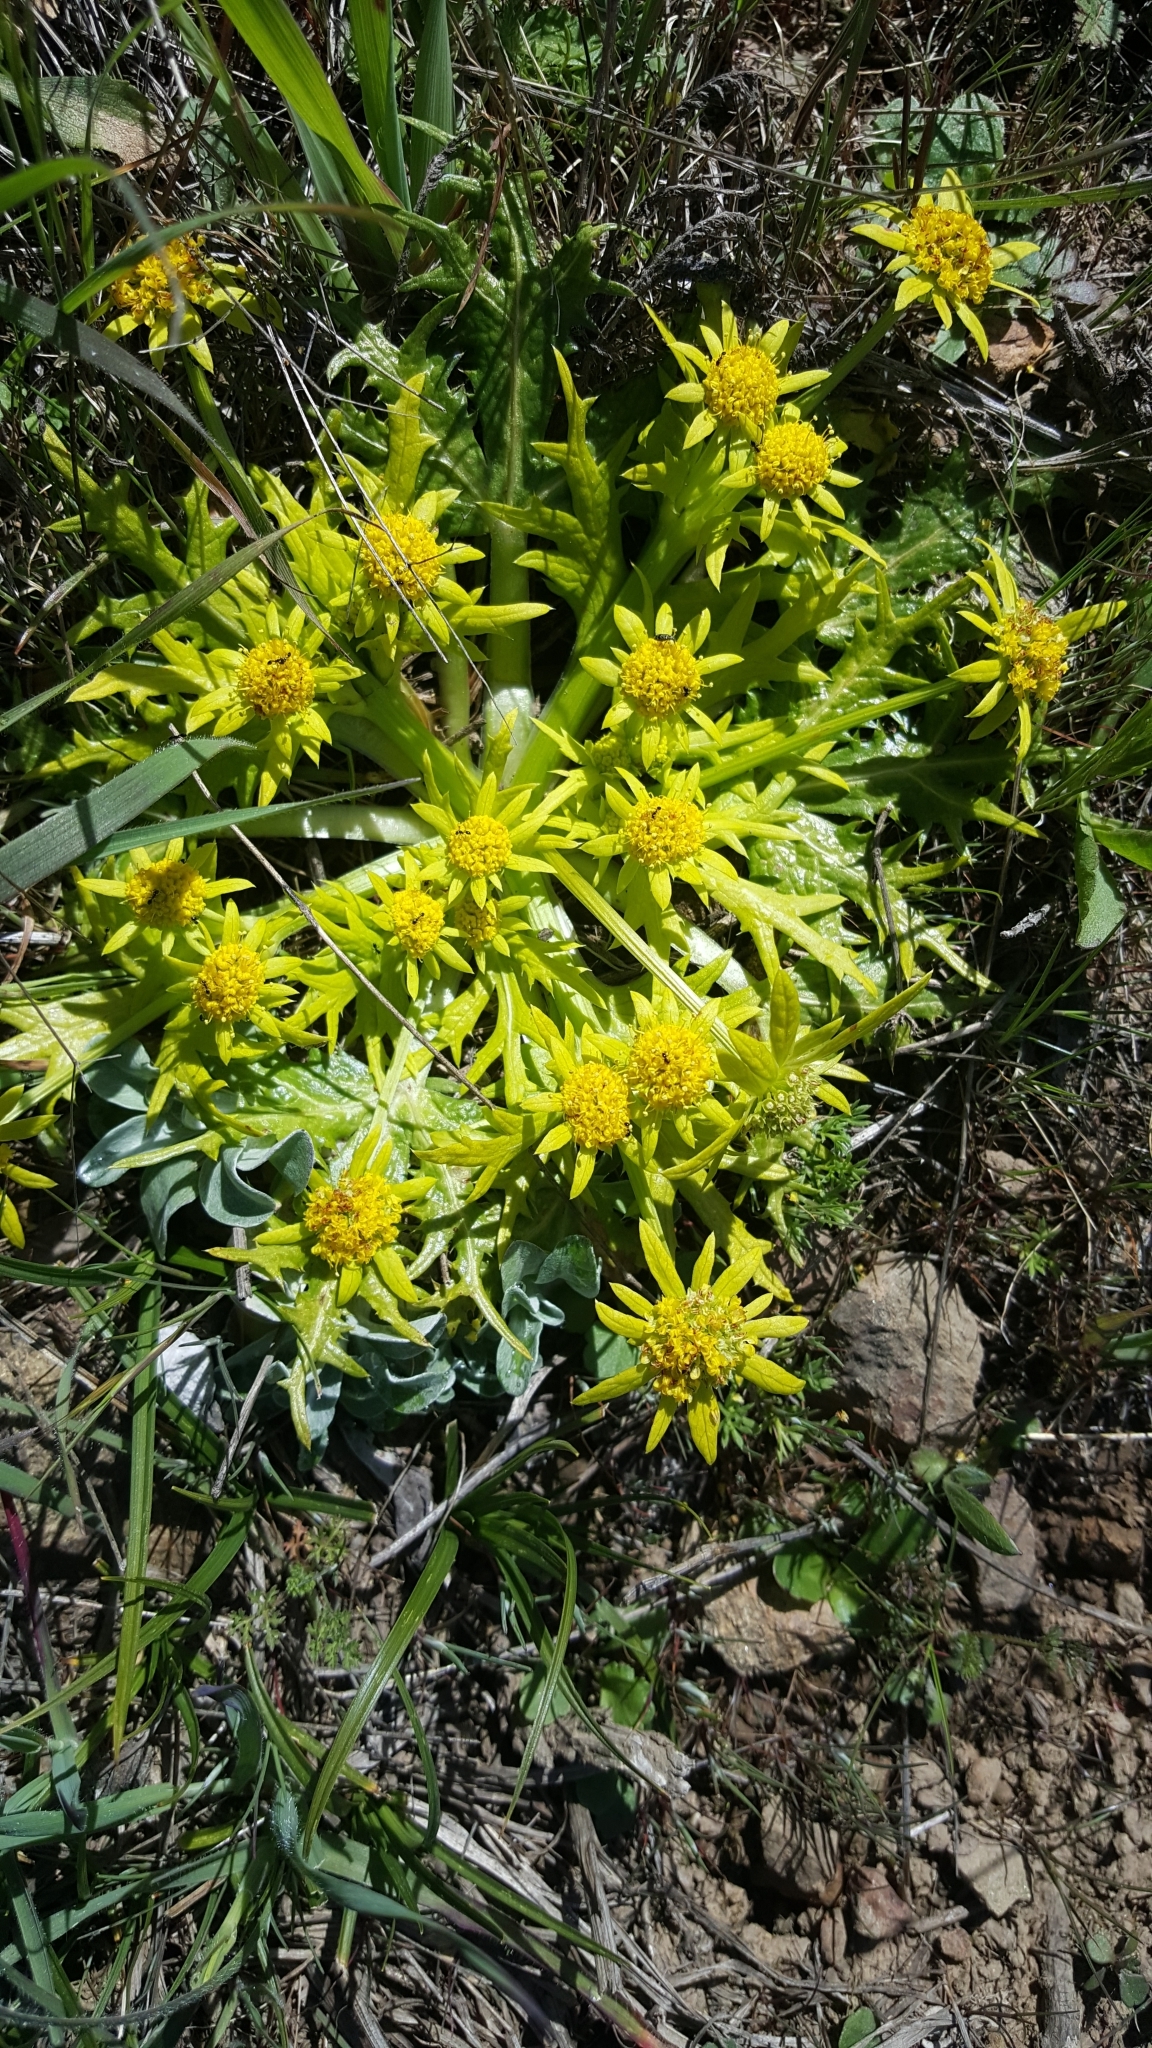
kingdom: Plantae
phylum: Tracheophyta
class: Magnoliopsida
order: Apiales
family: Apiaceae
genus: Sanicula
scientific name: Sanicula arctopoides
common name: Footsteps-of-spring
